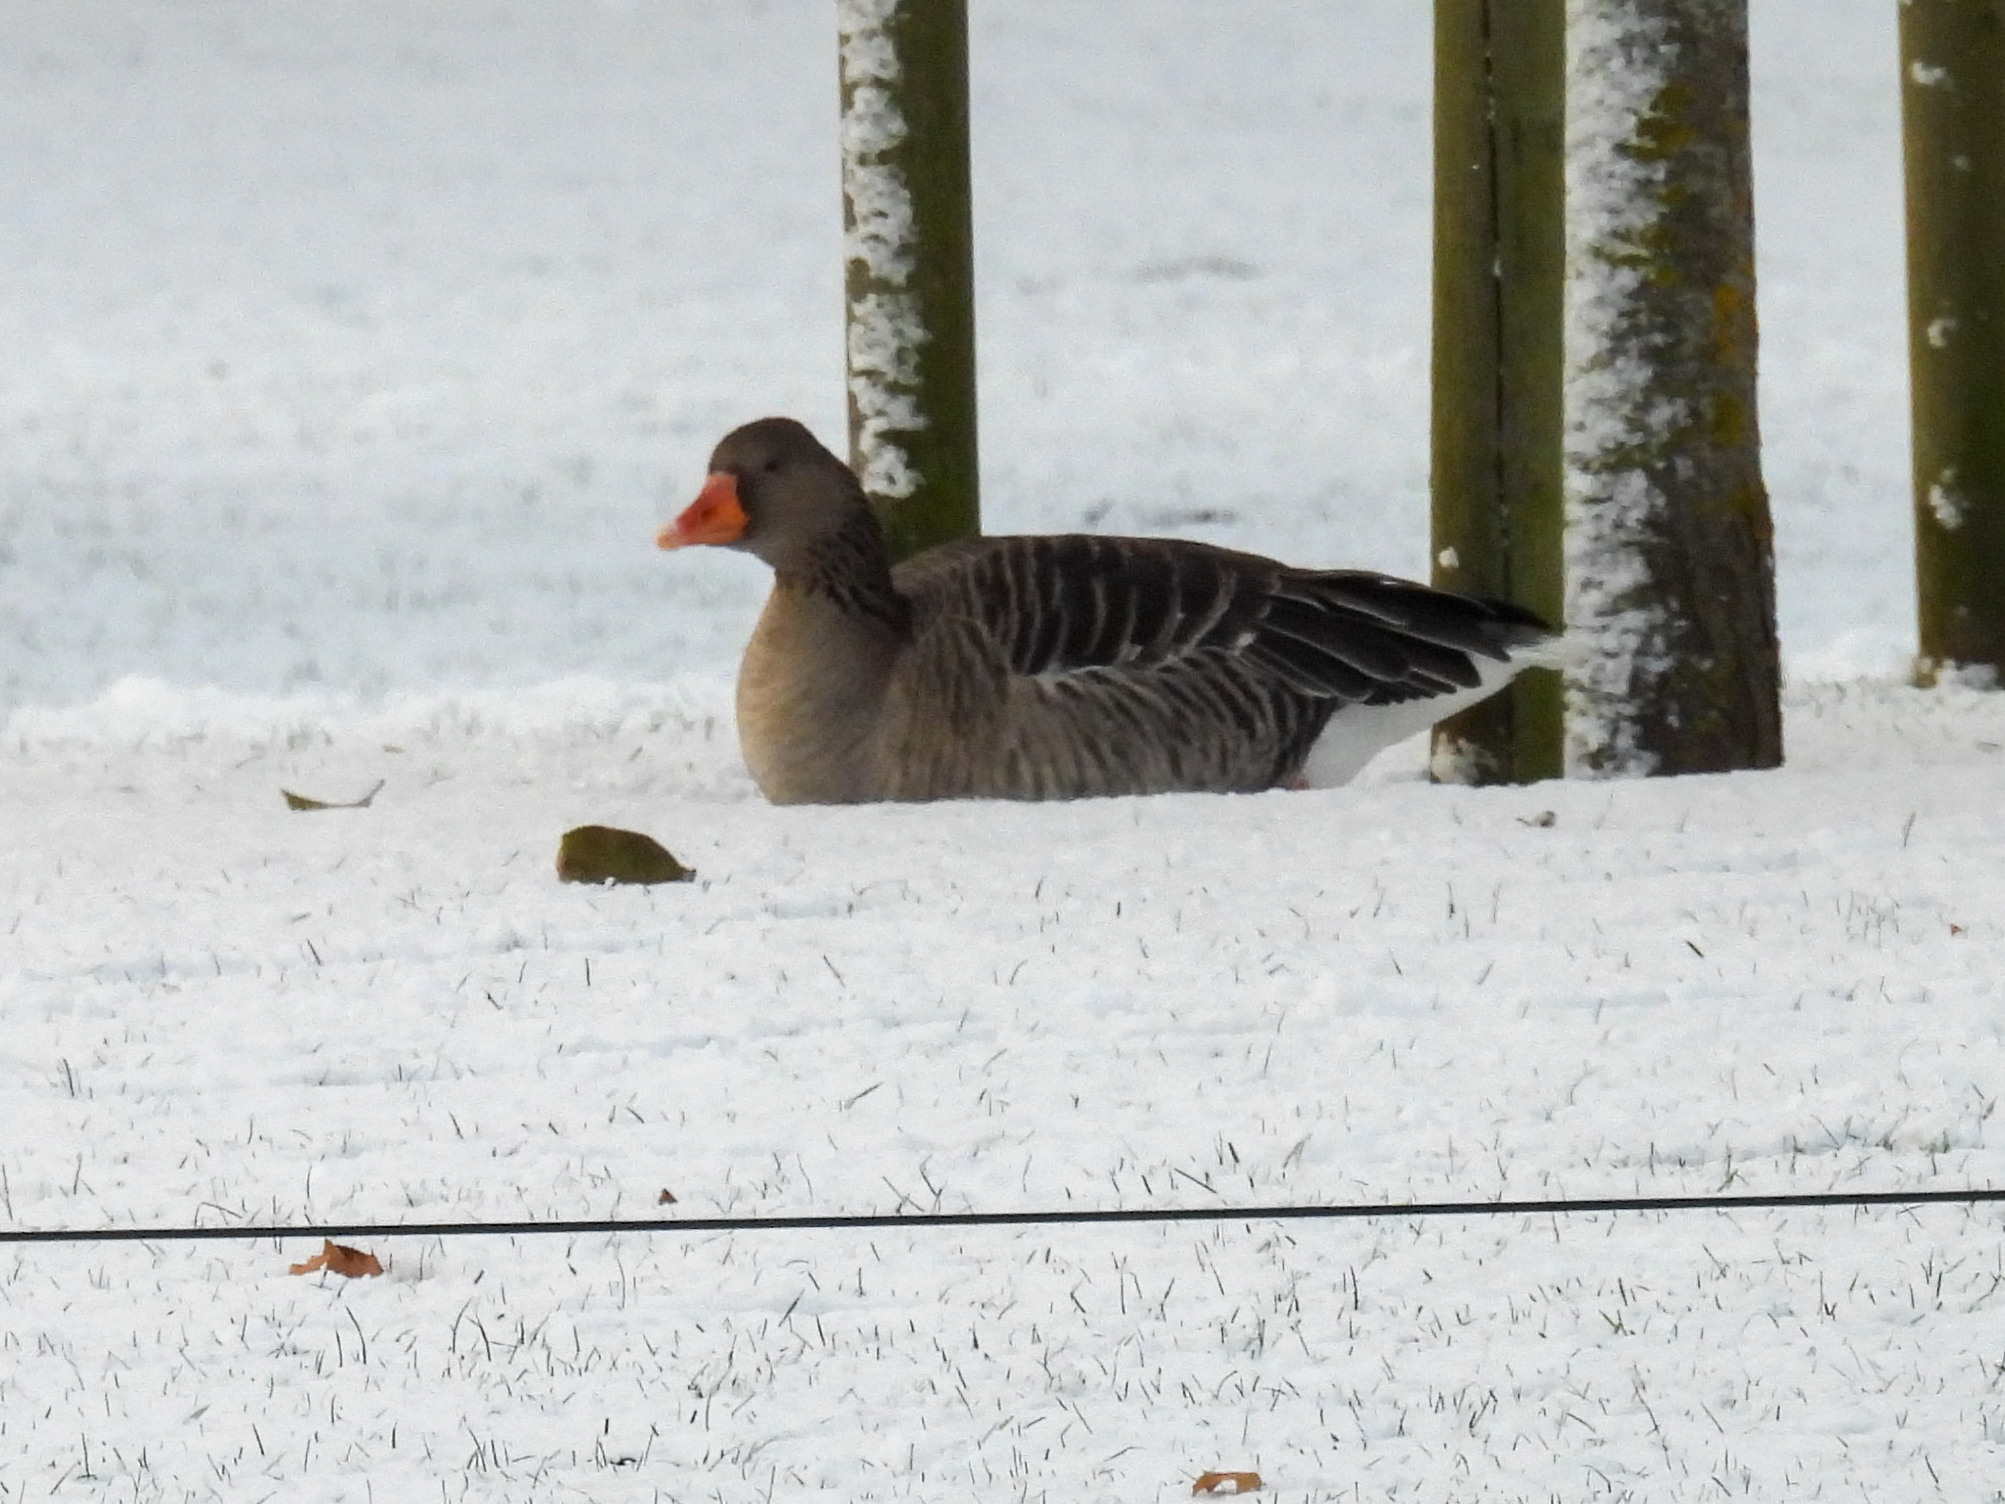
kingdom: Animalia
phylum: Chordata
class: Aves
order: Anseriformes
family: Anatidae
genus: Anser
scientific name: Anser anser
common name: Greylag goose
